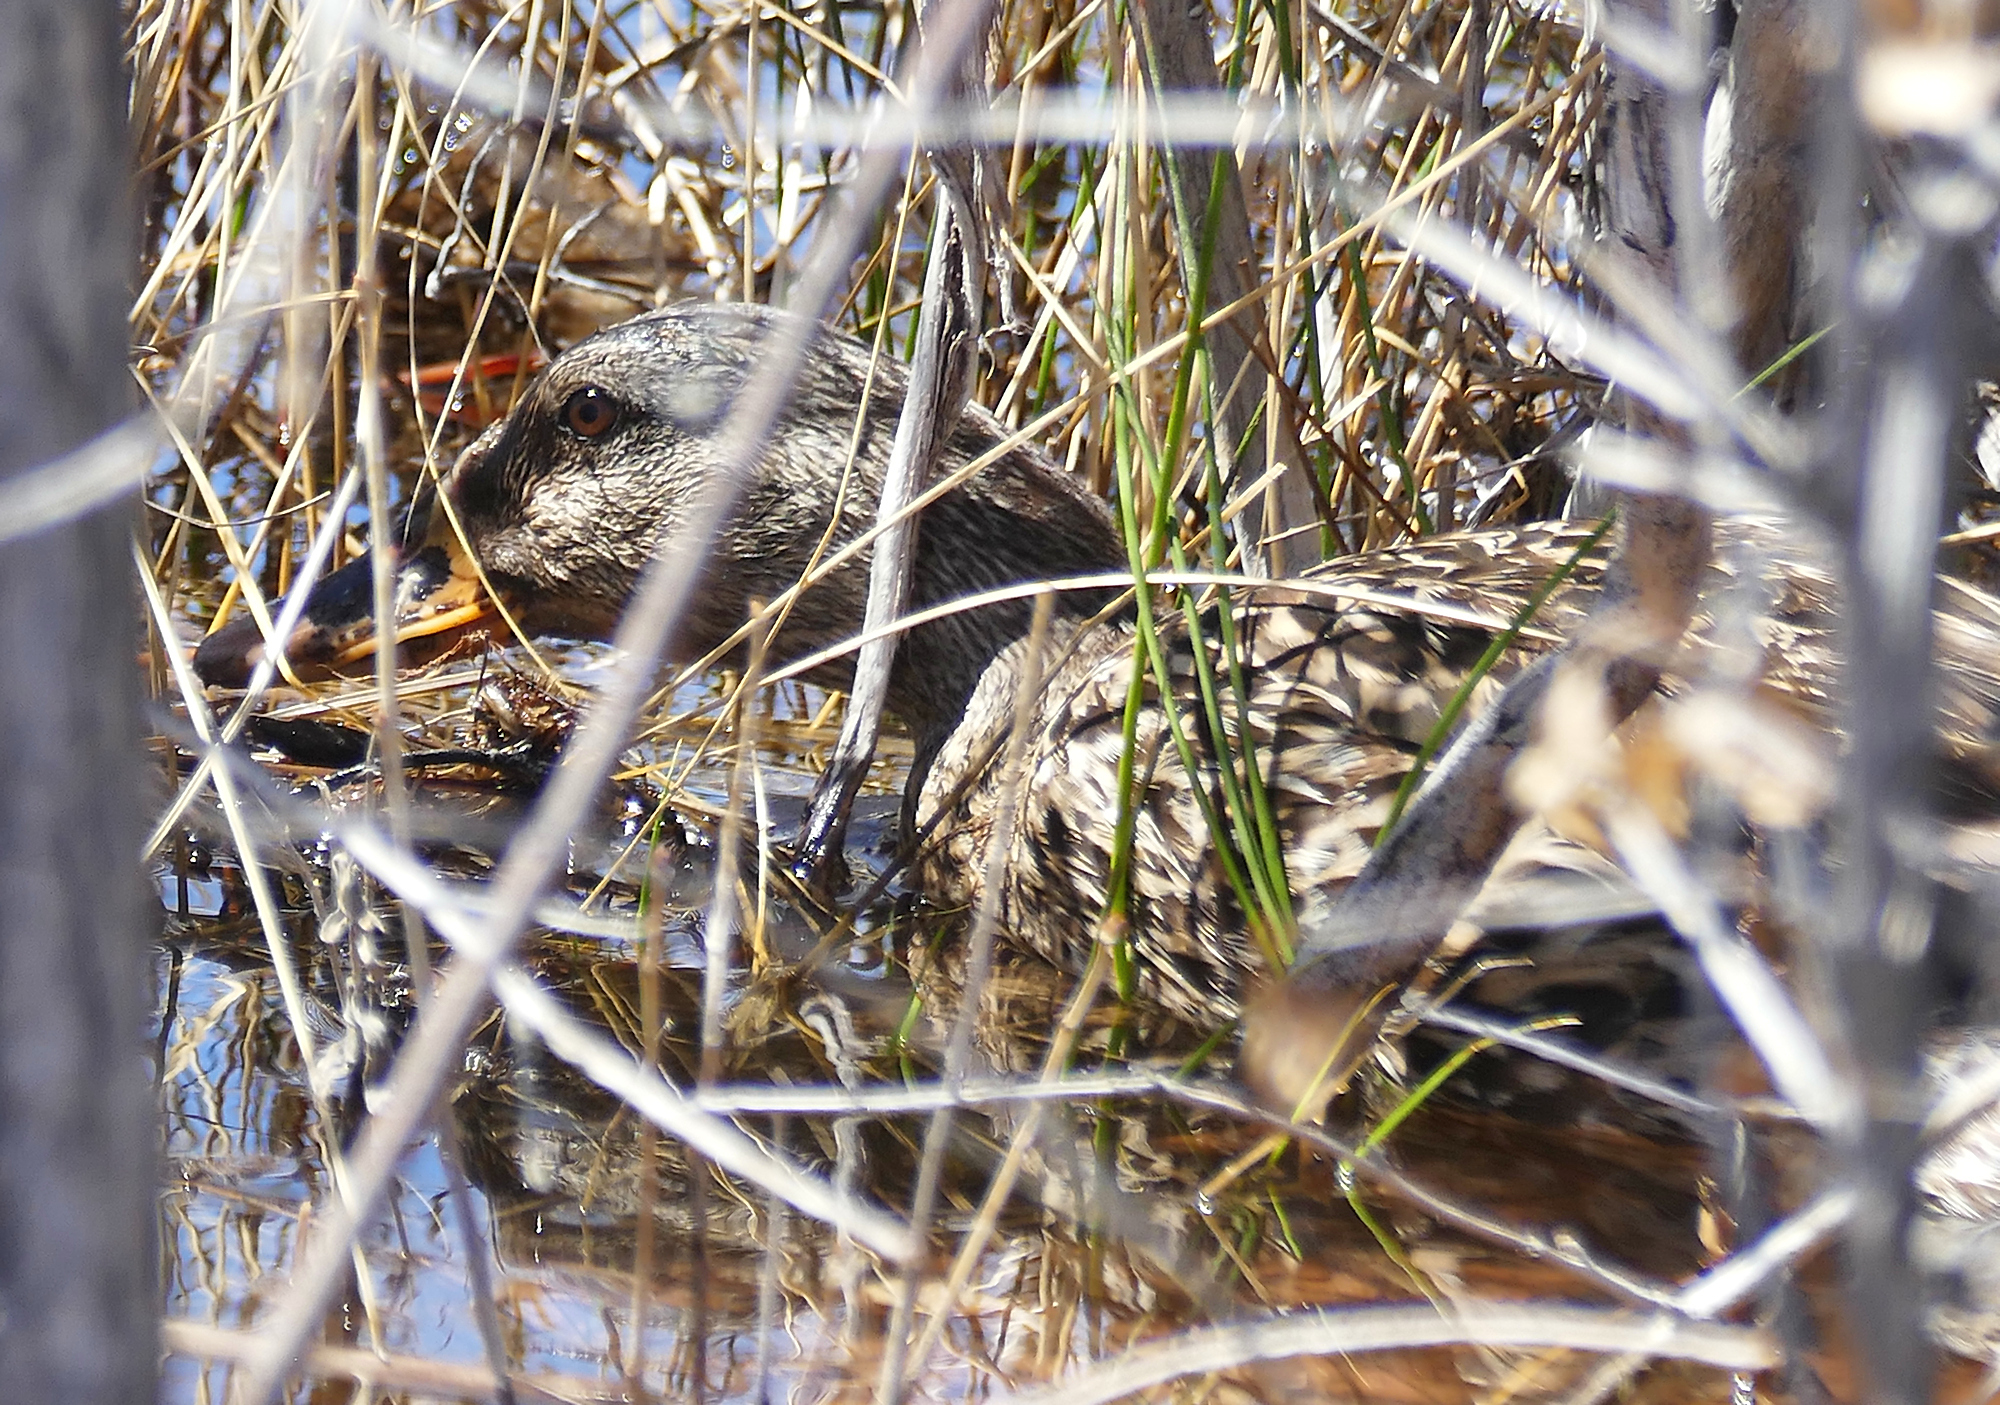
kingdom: Animalia
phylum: Chordata
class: Aves
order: Anseriformes
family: Anatidae
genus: Anas
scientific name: Anas platyrhynchos
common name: Mallard
